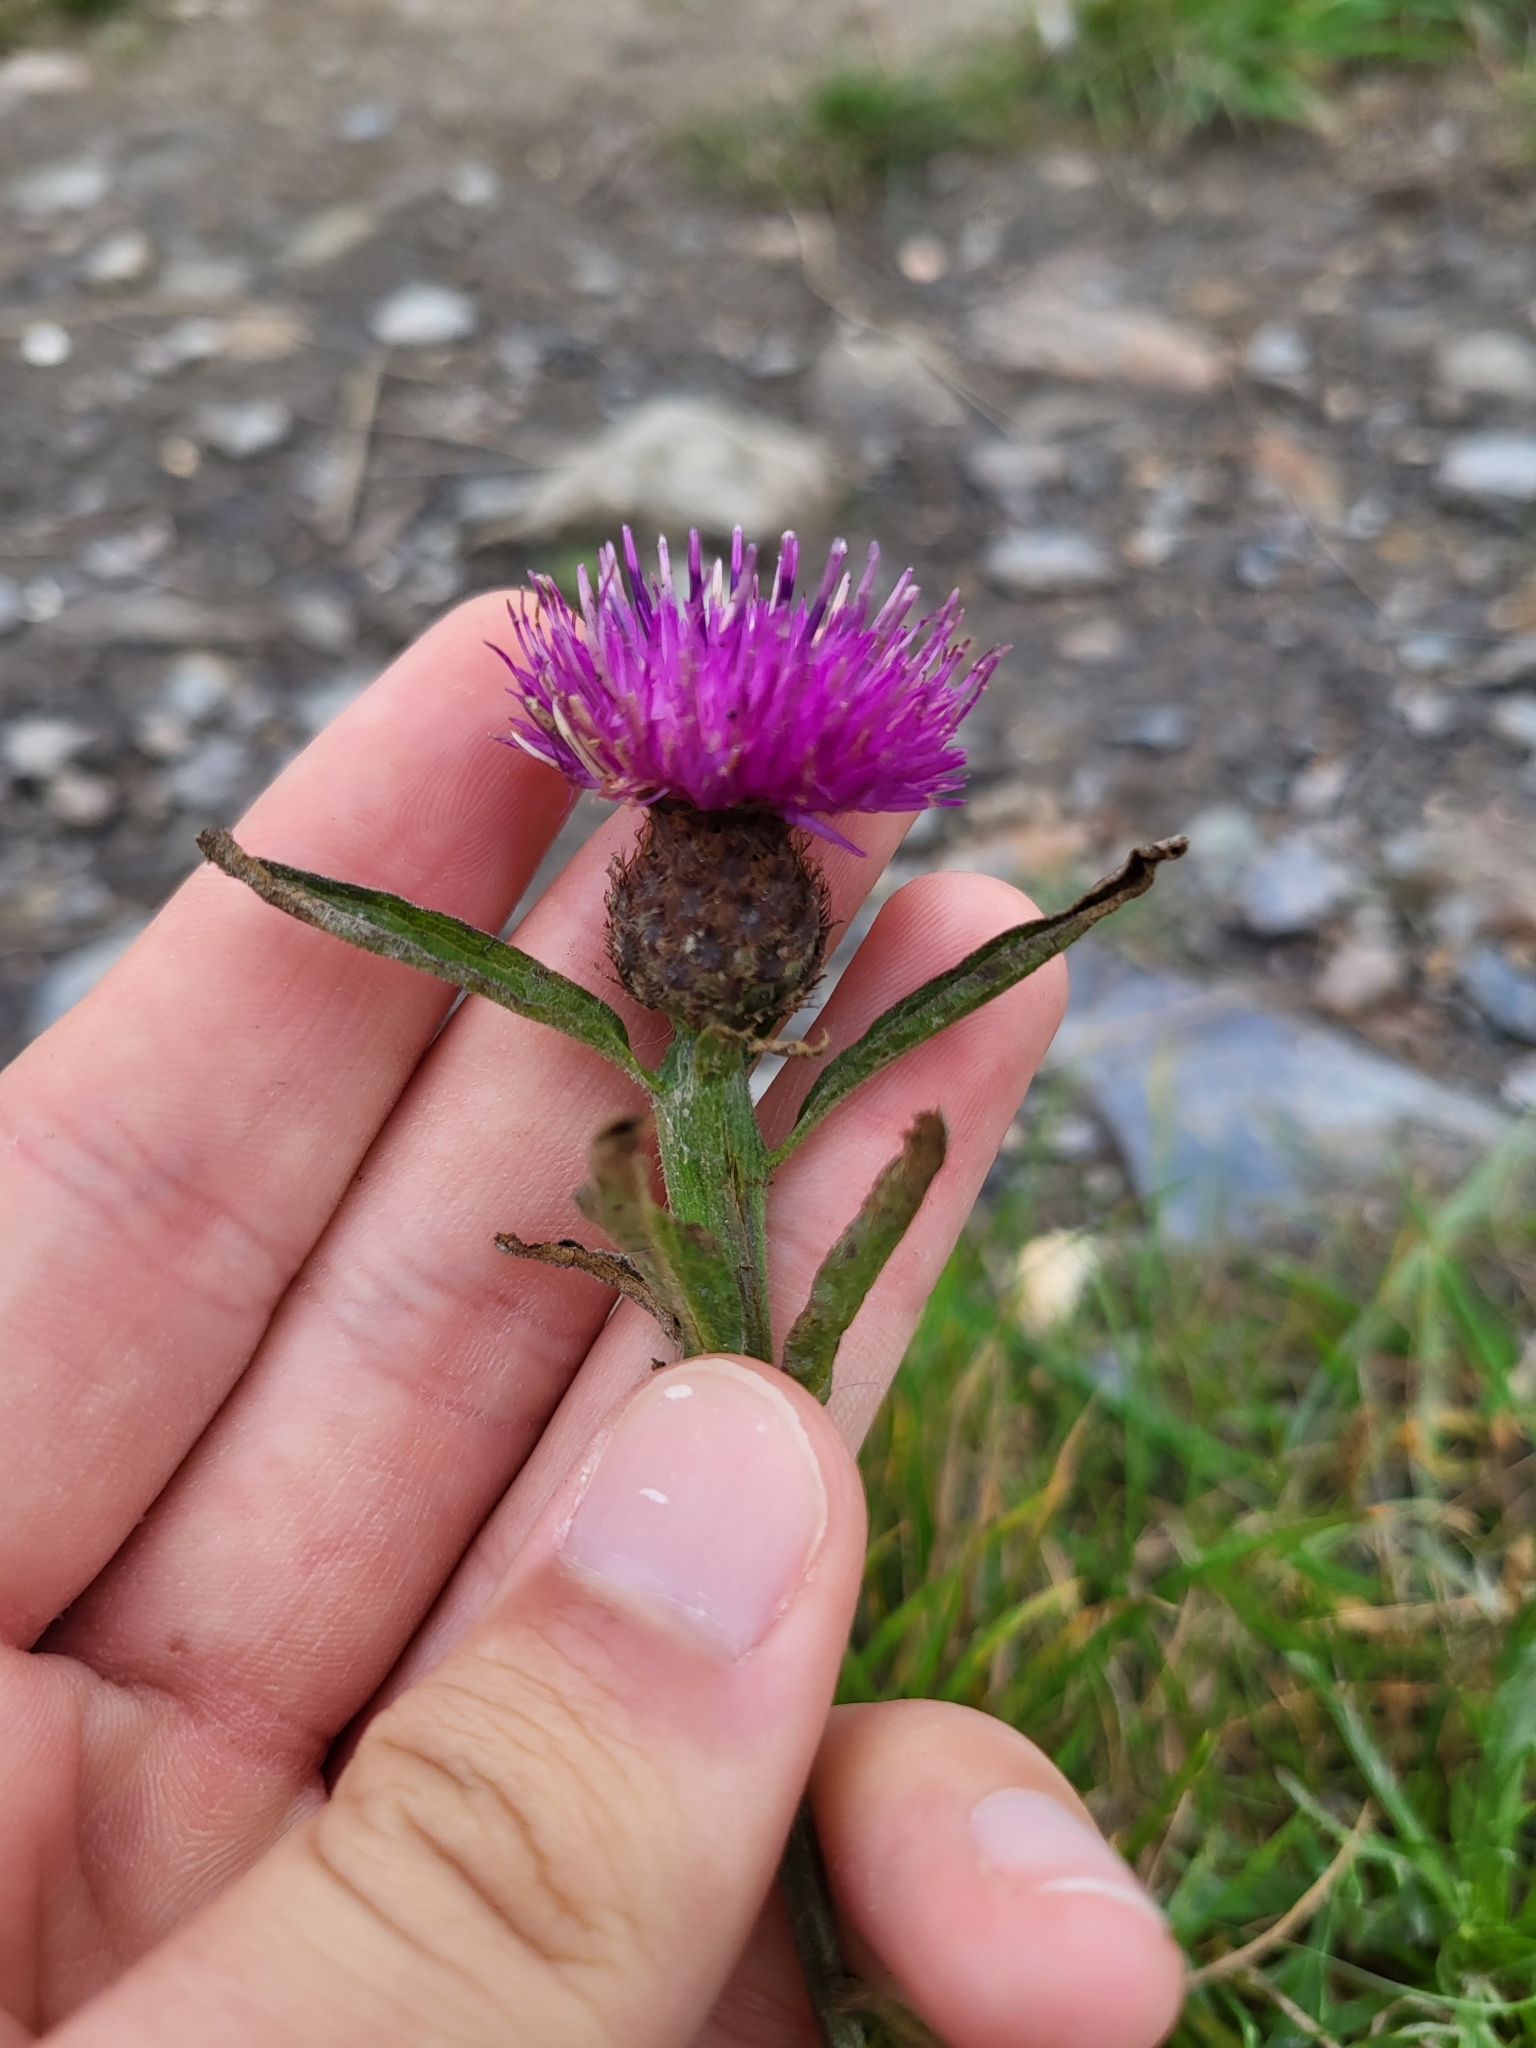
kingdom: Plantae
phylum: Tracheophyta
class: Magnoliopsida
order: Asterales
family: Asteraceae
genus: Centaurea
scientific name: Centaurea nigra
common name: Lesser knapweed
